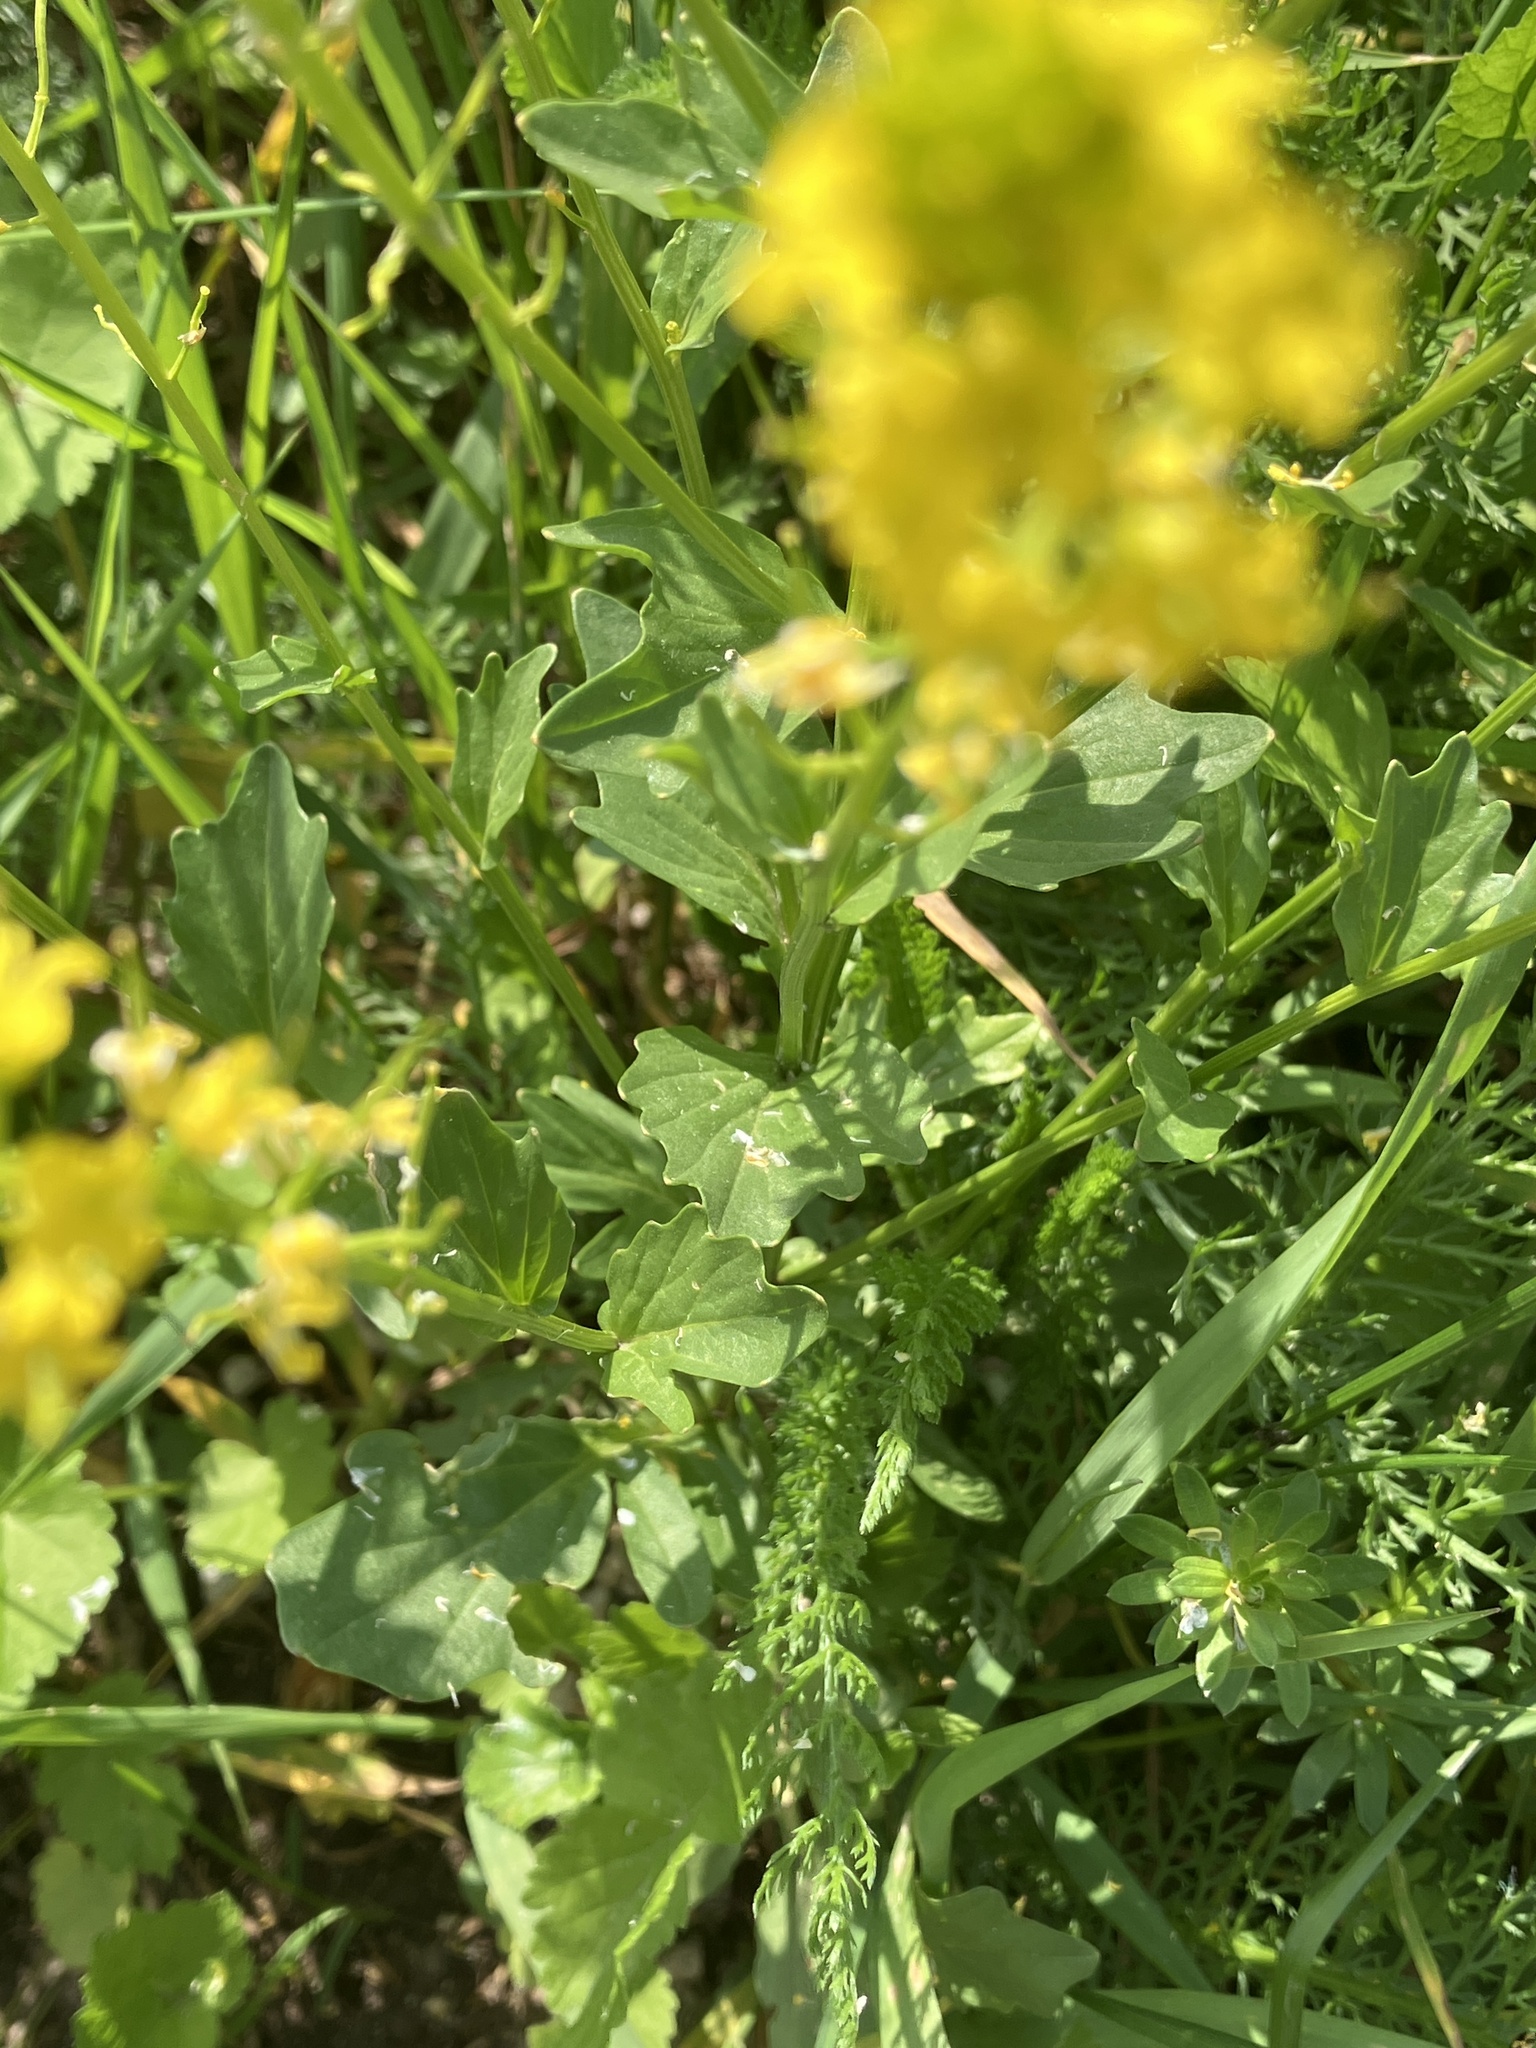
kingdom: Plantae
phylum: Tracheophyta
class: Magnoliopsida
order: Brassicales
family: Brassicaceae
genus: Barbarea
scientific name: Barbarea vulgaris
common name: Cressy-greens
